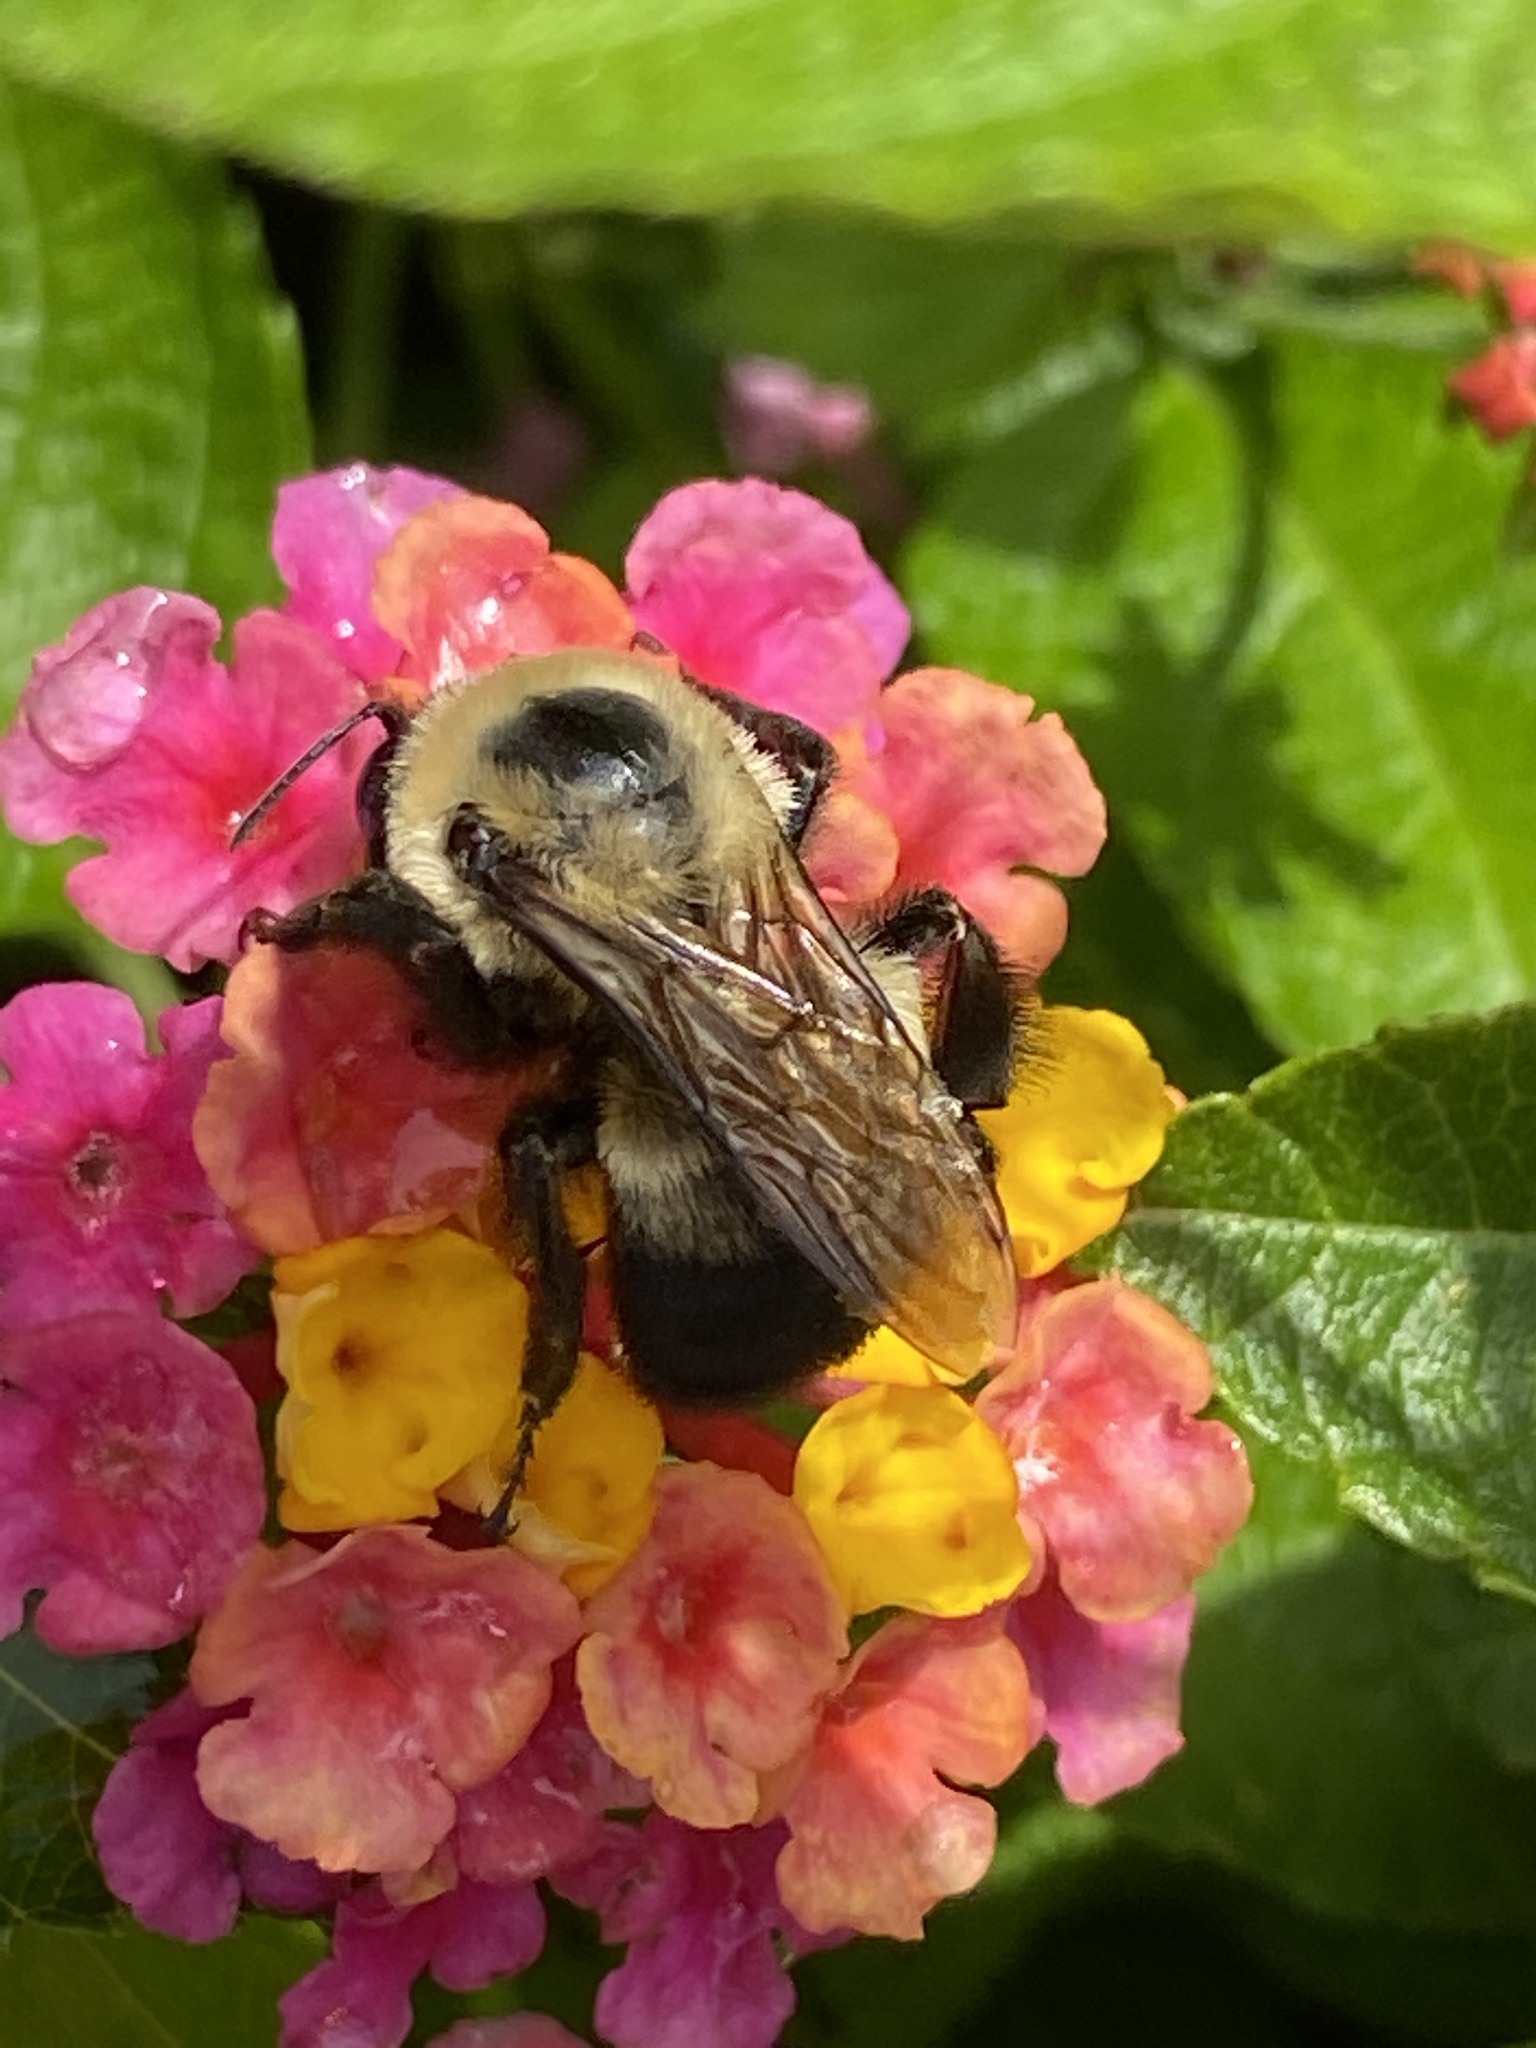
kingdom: Animalia
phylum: Arthropoda
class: Insecta
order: Hymenoptera
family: Apidae
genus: Bombus
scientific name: Bombus griseocollis
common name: Brown-belted bumble bee
